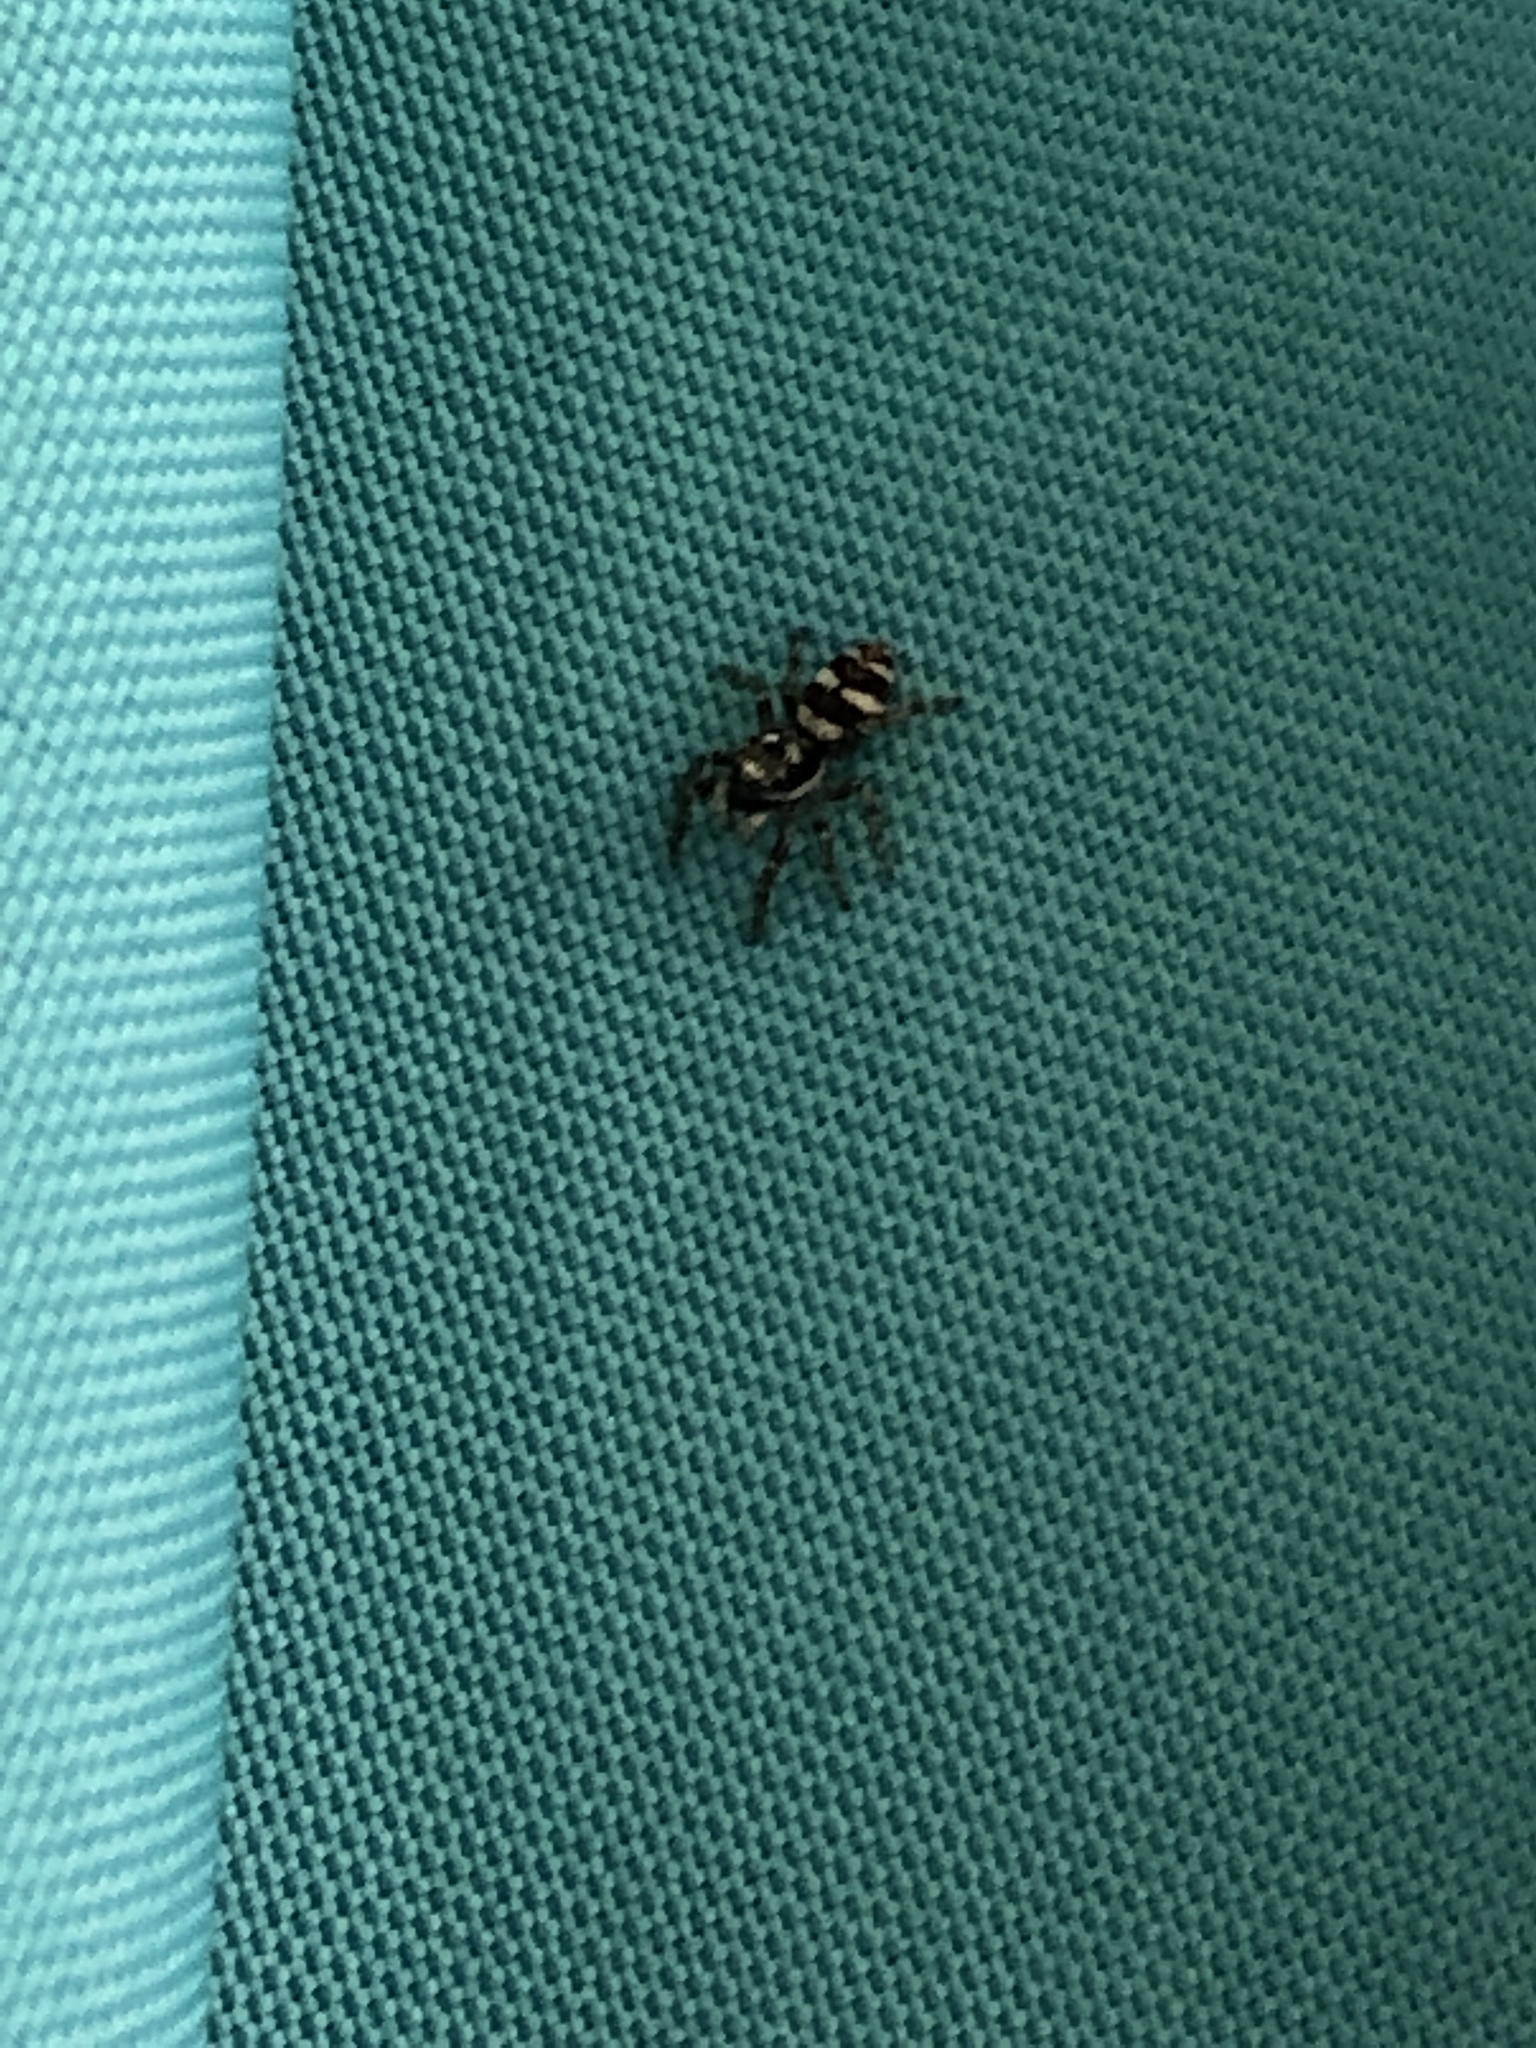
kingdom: Animalia
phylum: Arthropoda
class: Arachnida
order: Araneae
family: Salticidae
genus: Salticus
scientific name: Salticus scenicus
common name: Zebra jumper
